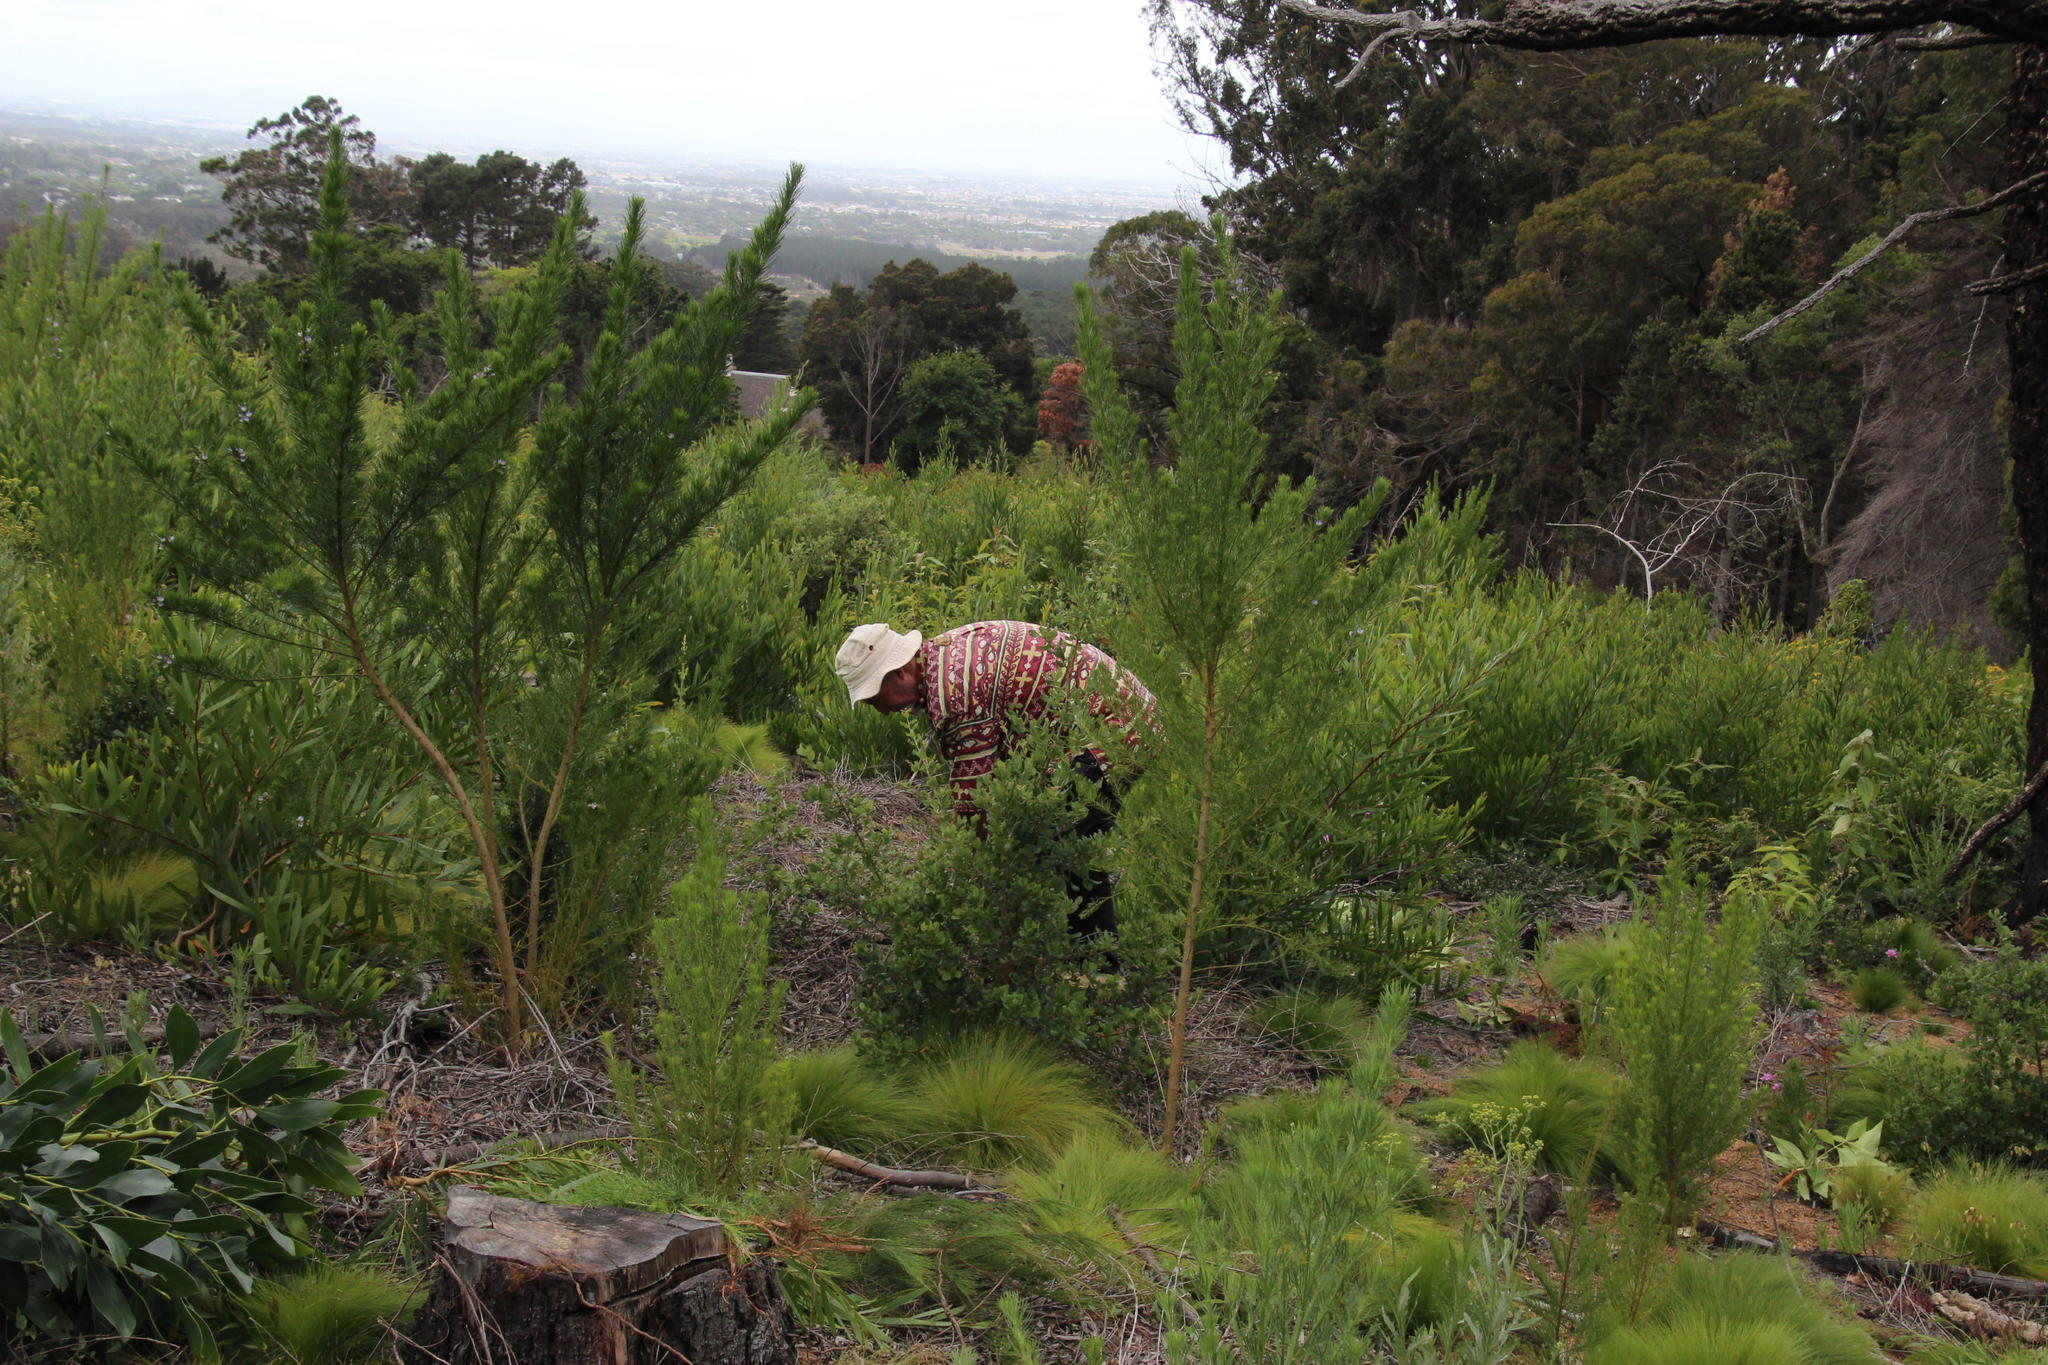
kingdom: Plantae
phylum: Tracheophyta
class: Magnoliopsida
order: Fabales
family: Fabaceae
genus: Psoralea
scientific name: Psoralea pinnata
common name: African scurfpea
